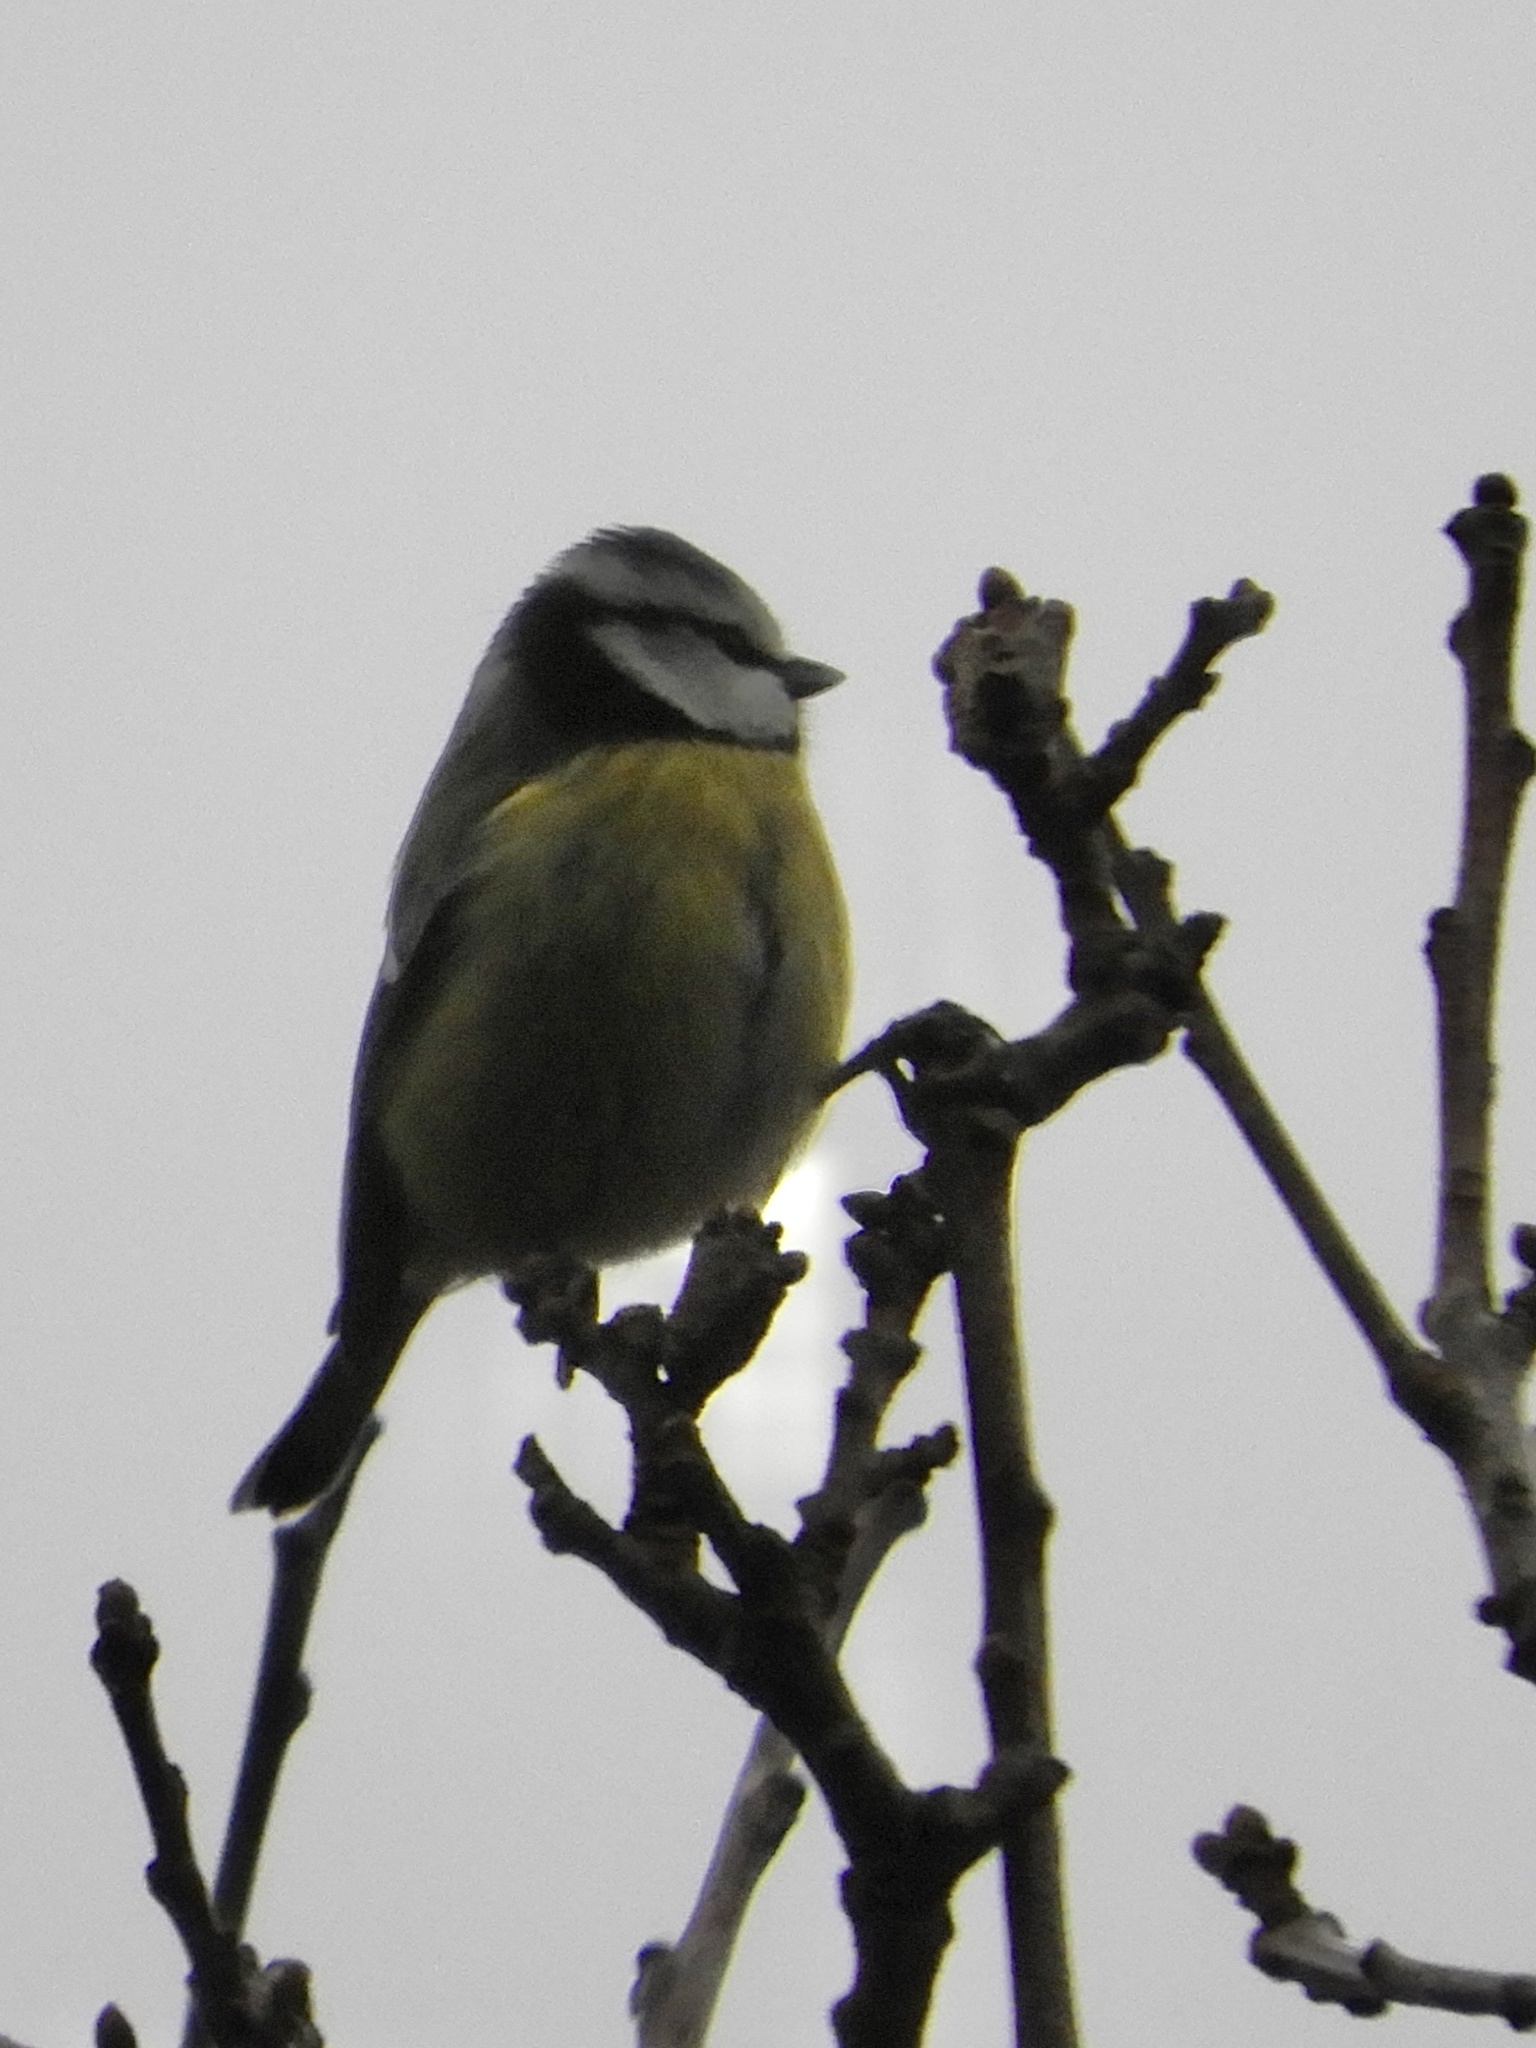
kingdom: Animalia
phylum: Chordata
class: Aves
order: Passeriformes
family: Paridae
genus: Cyanistes
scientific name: Cyanistes caeruleus
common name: Eurasian blue tit
